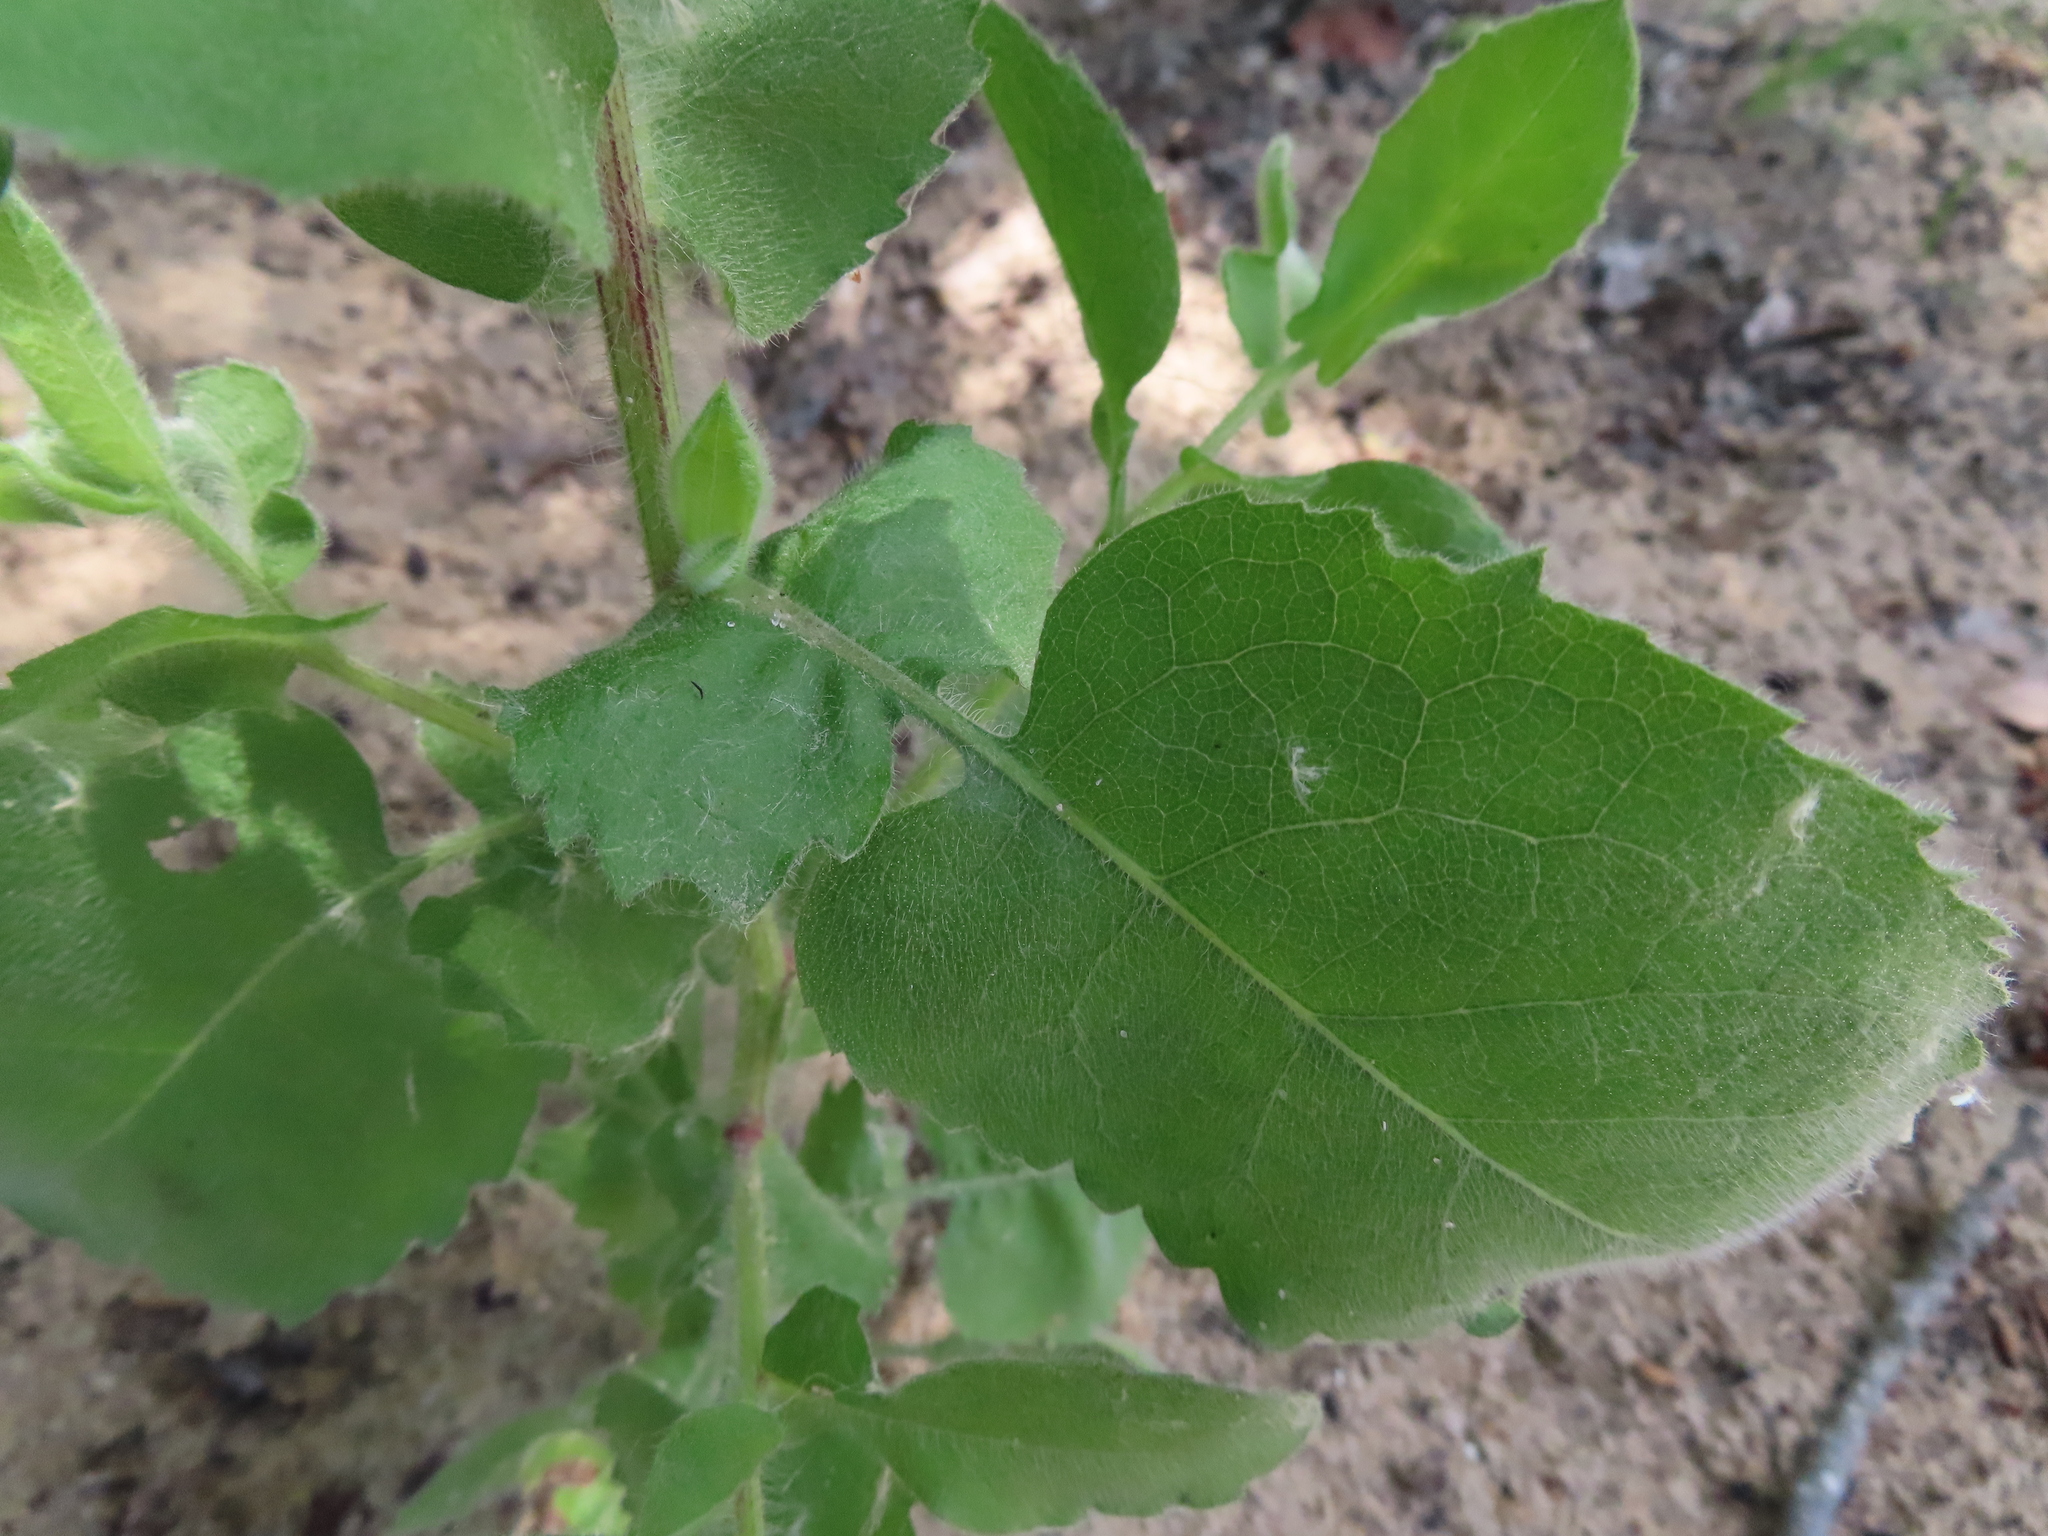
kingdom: Plantae
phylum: Tracheophyta
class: Magnoliopsida
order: Asterales
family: Asteraceae
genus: Heterotheca
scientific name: Heterotheca subaxillaris
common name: Camphorweed
